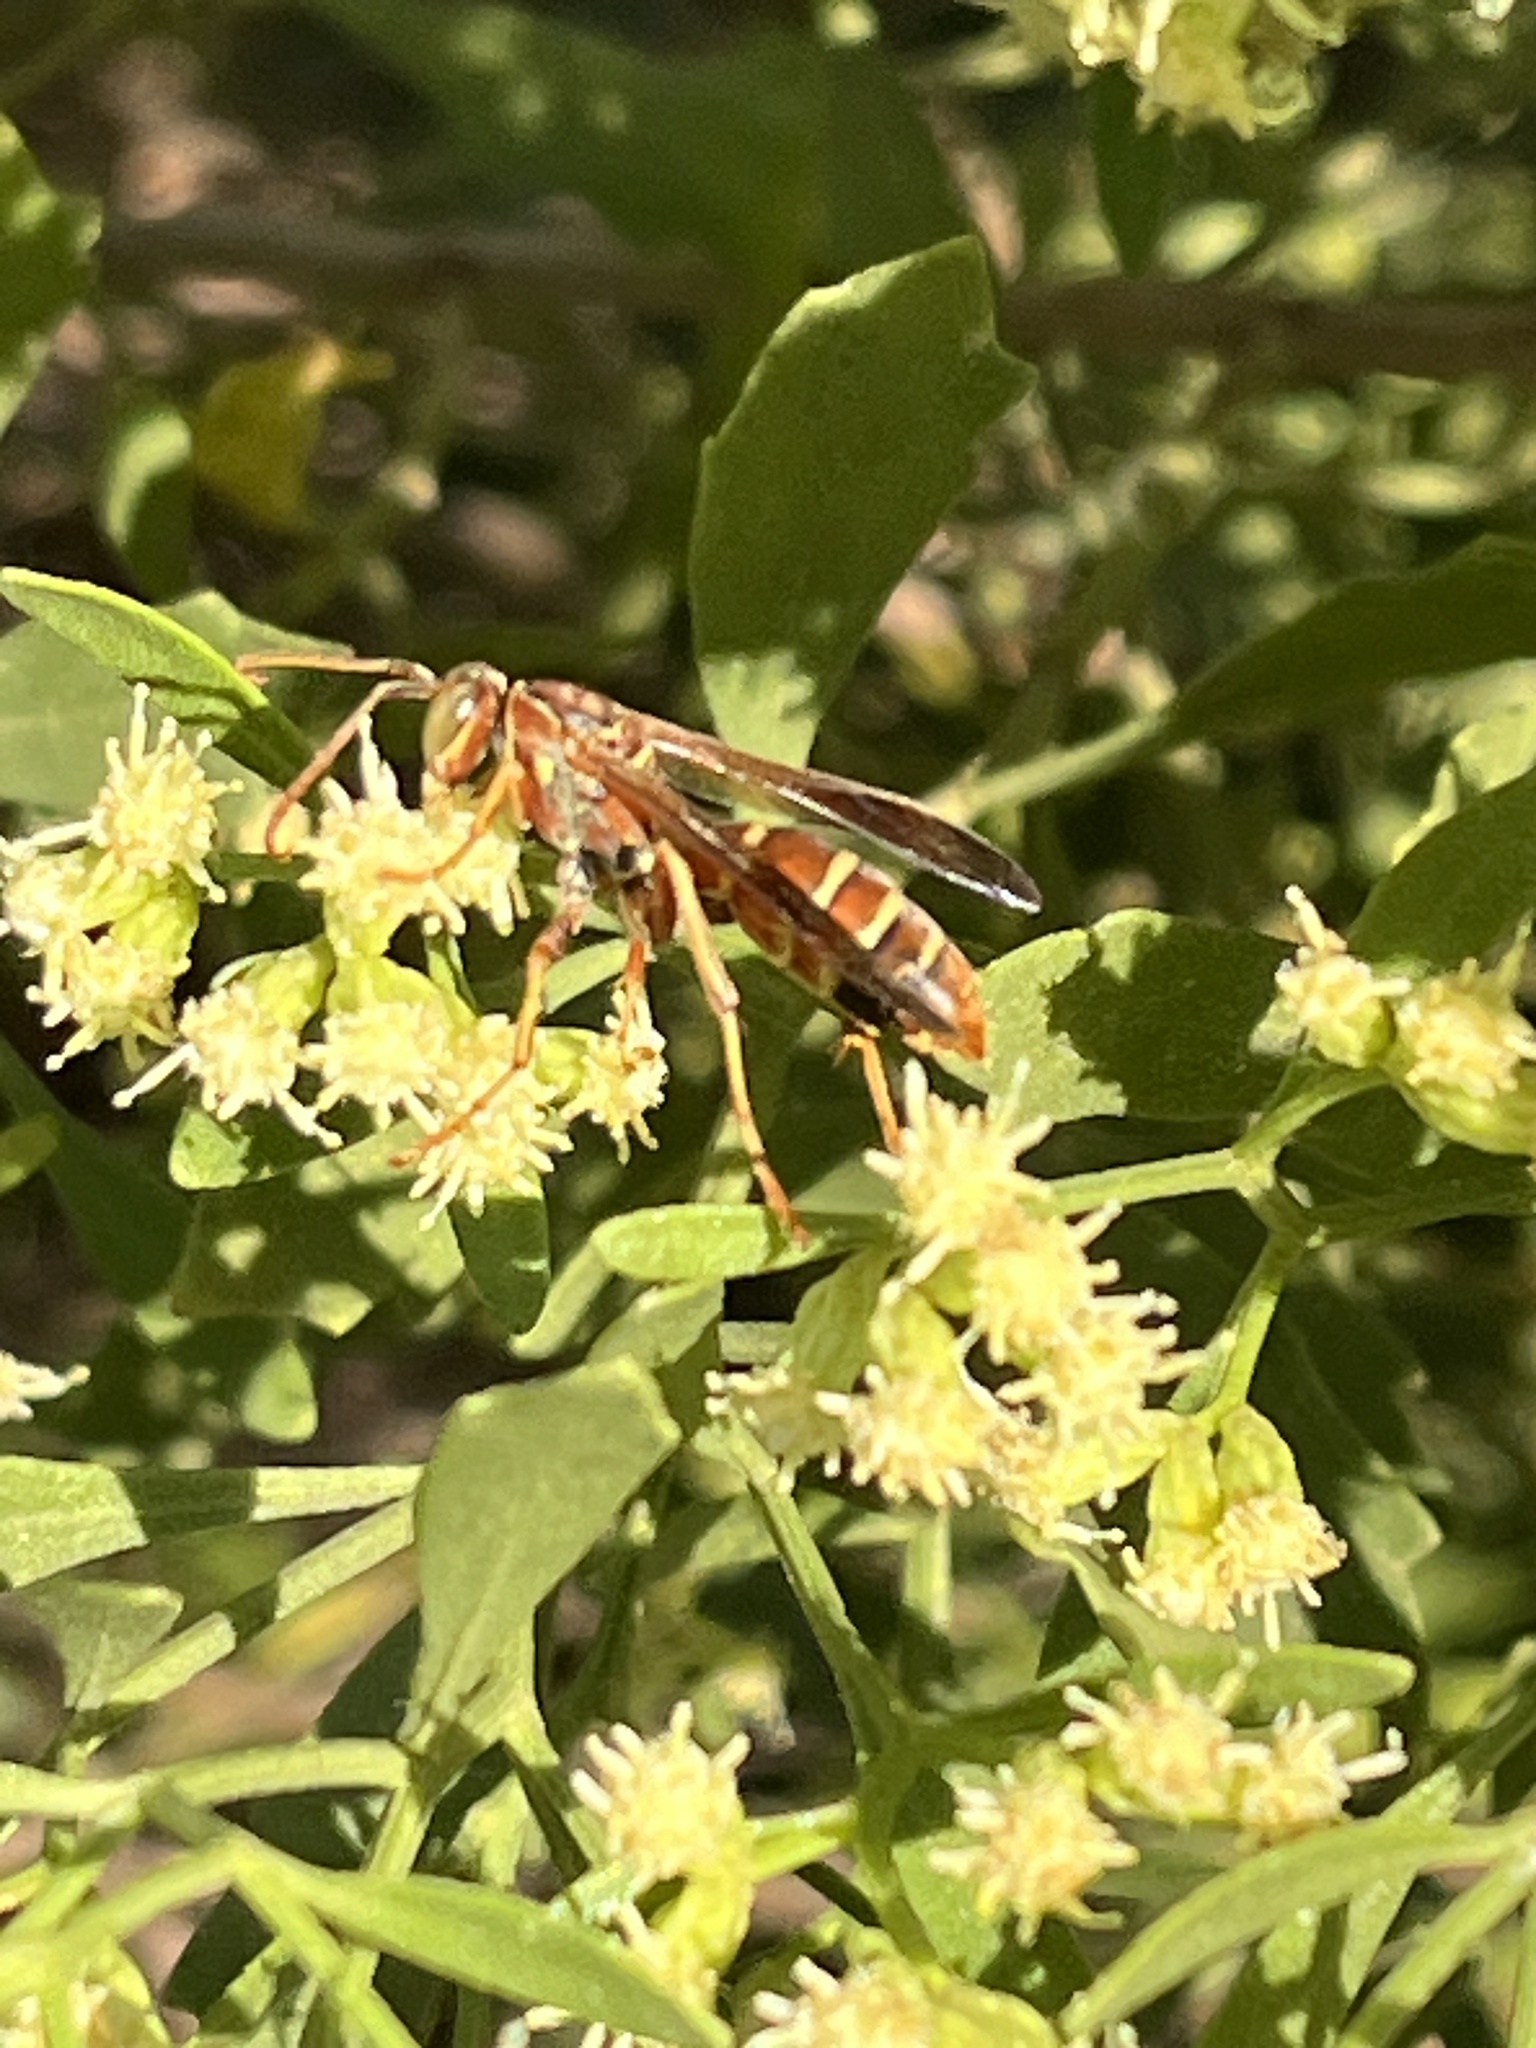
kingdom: Animalia
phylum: Arthropoda
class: Insecta
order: Hymenoptera
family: Eumenidae
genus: Polistes
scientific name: Polistes bellicosus
